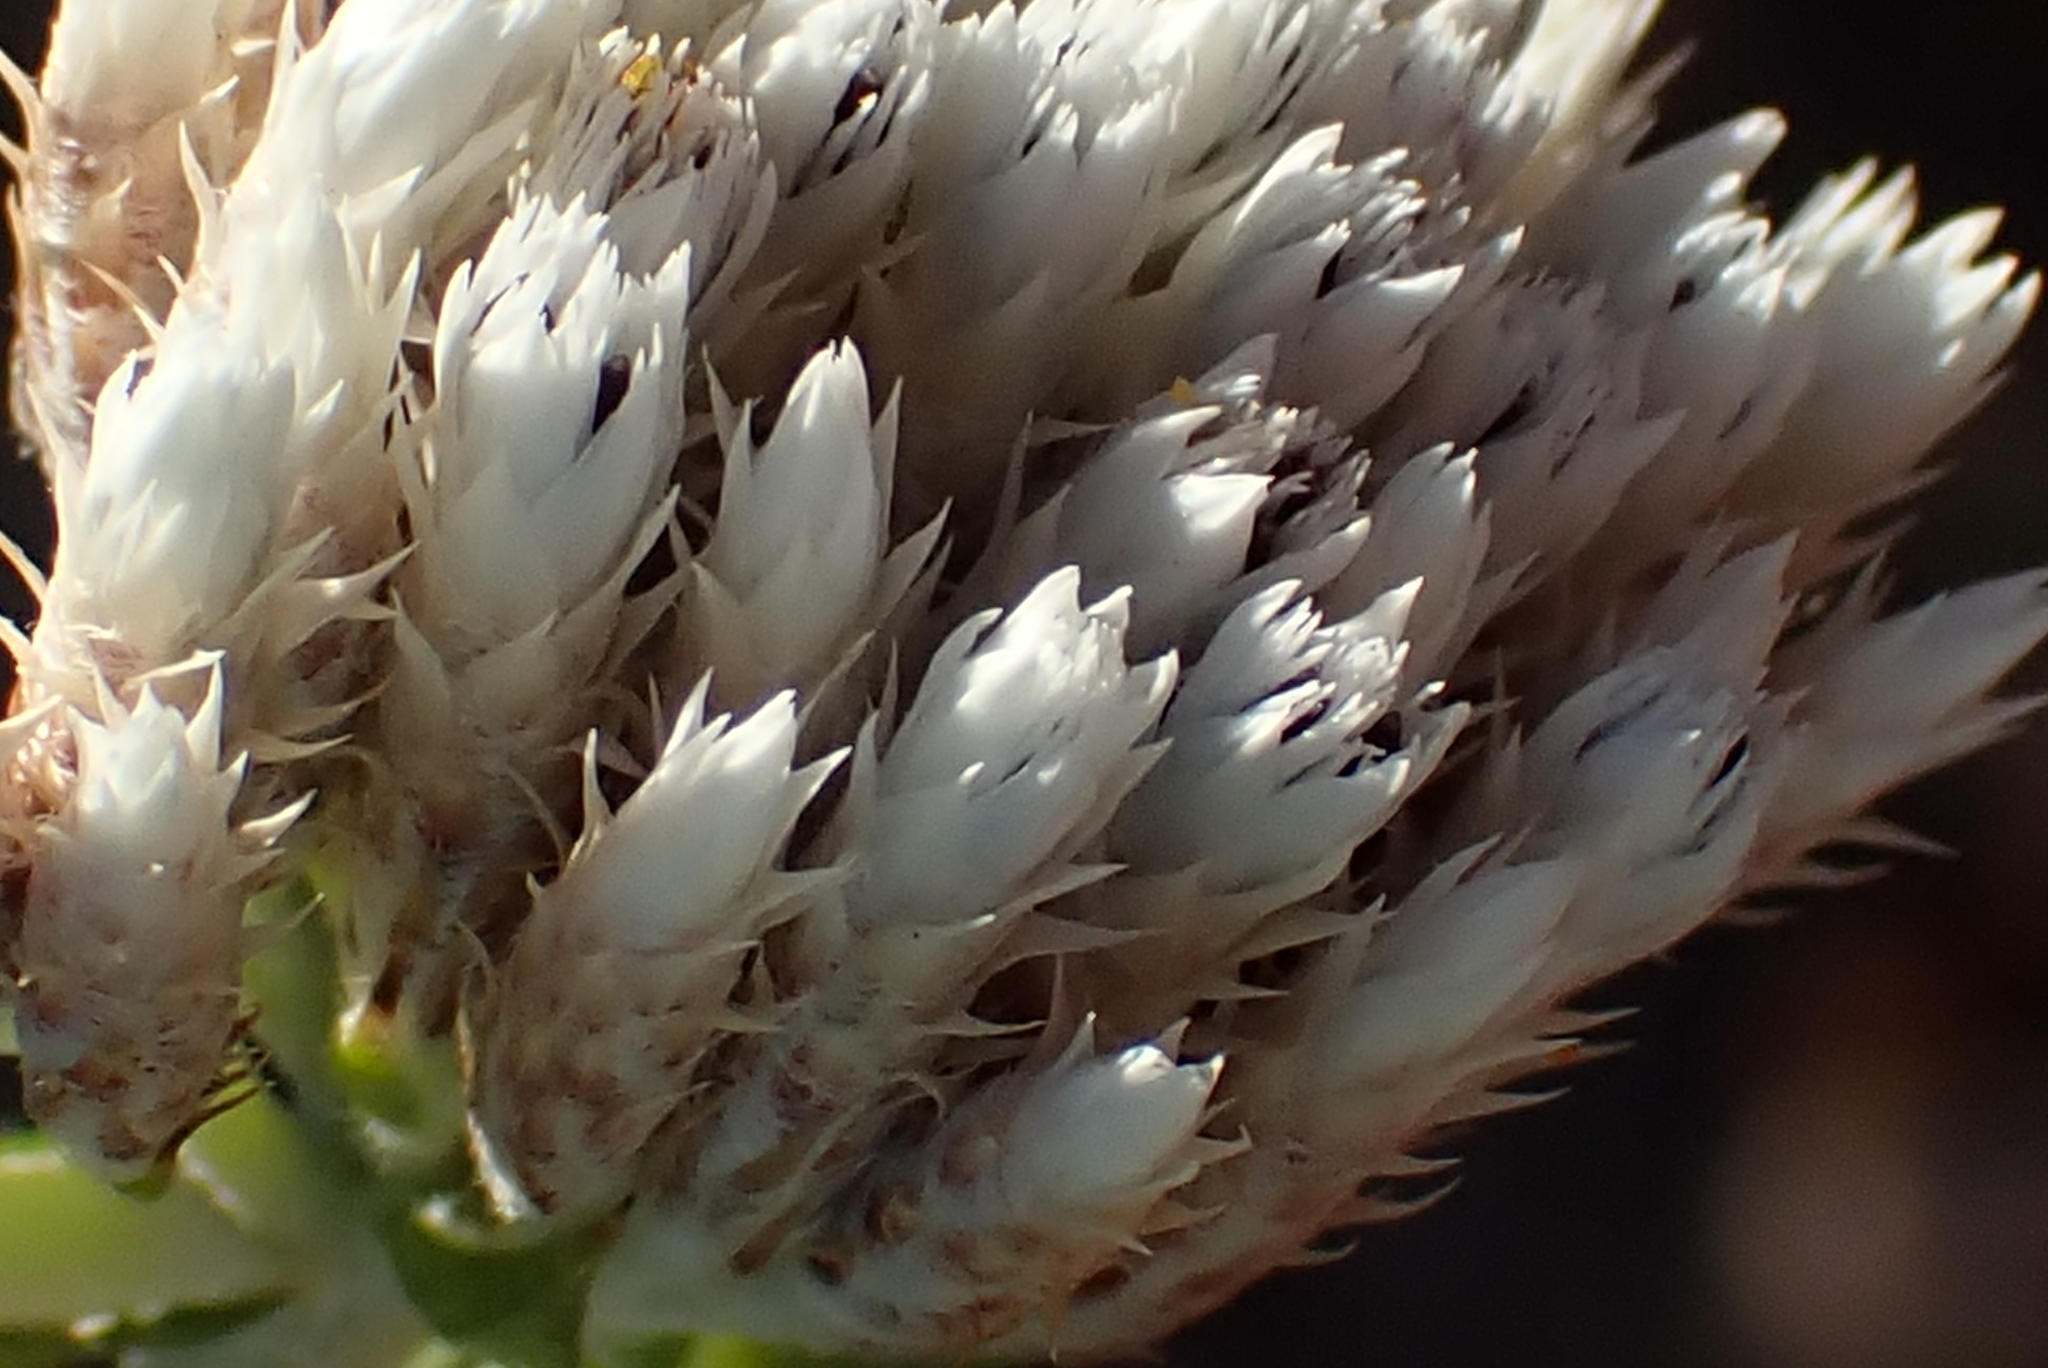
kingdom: Plantae
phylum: Tracheophyta
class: Magnoliopsida
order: Asterales
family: Asteraceae
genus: Metalasia
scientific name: Metalasia pulcherrima
